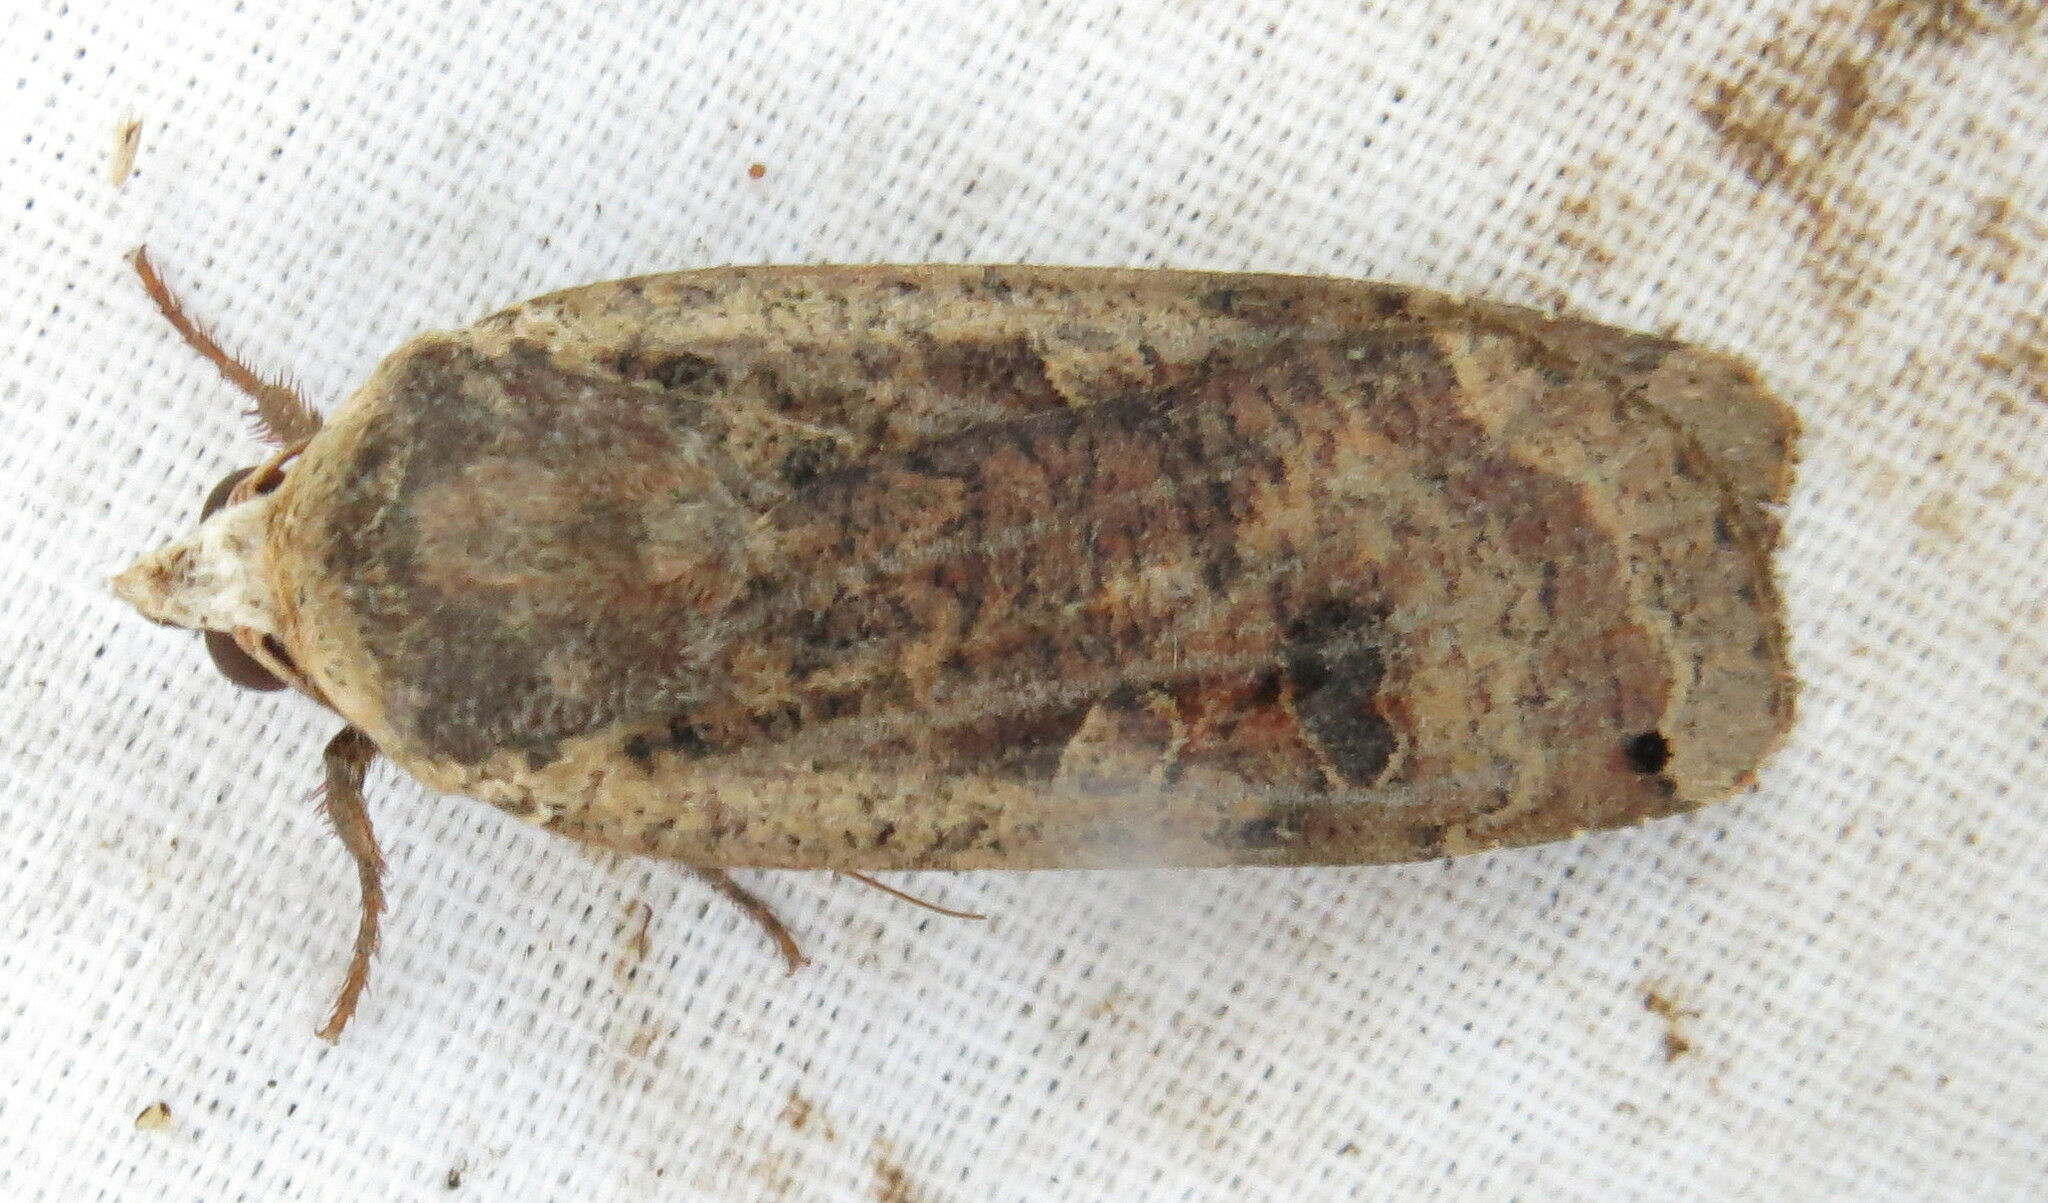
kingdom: Animalia
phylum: Arthropoda
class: Insecta
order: Lepidoptera
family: Noctuidae
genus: Noctua
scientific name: Noctua pronuba
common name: Large yellow underwing
